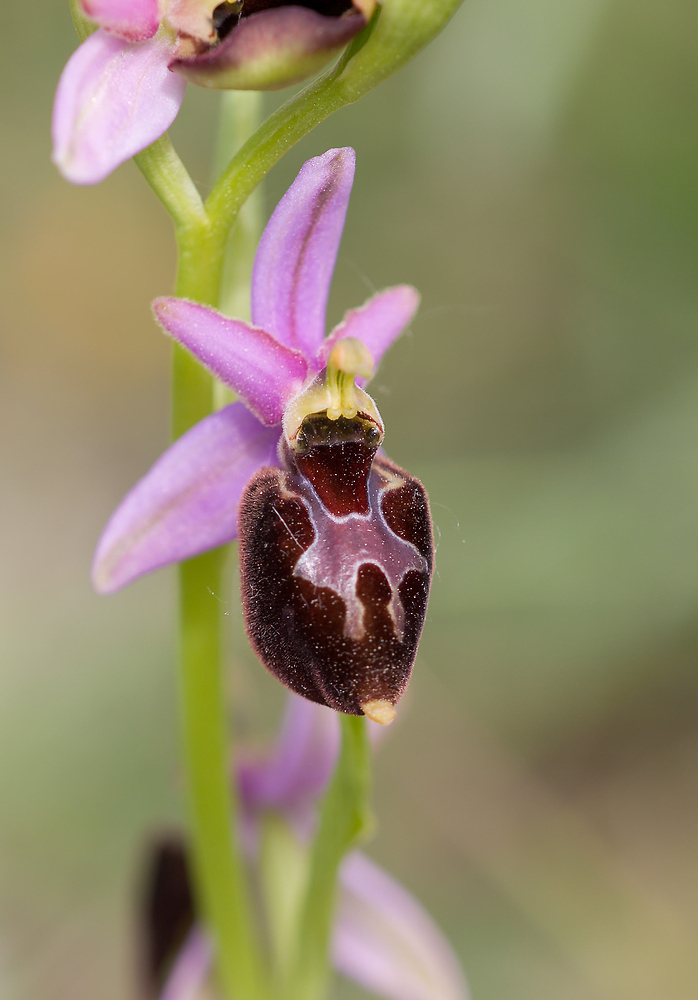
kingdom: Plantae
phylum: Tracheophyta
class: Liliopsida
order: Asparagales
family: Orchidaceae
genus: Ophrys
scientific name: Ophrys flavicans
